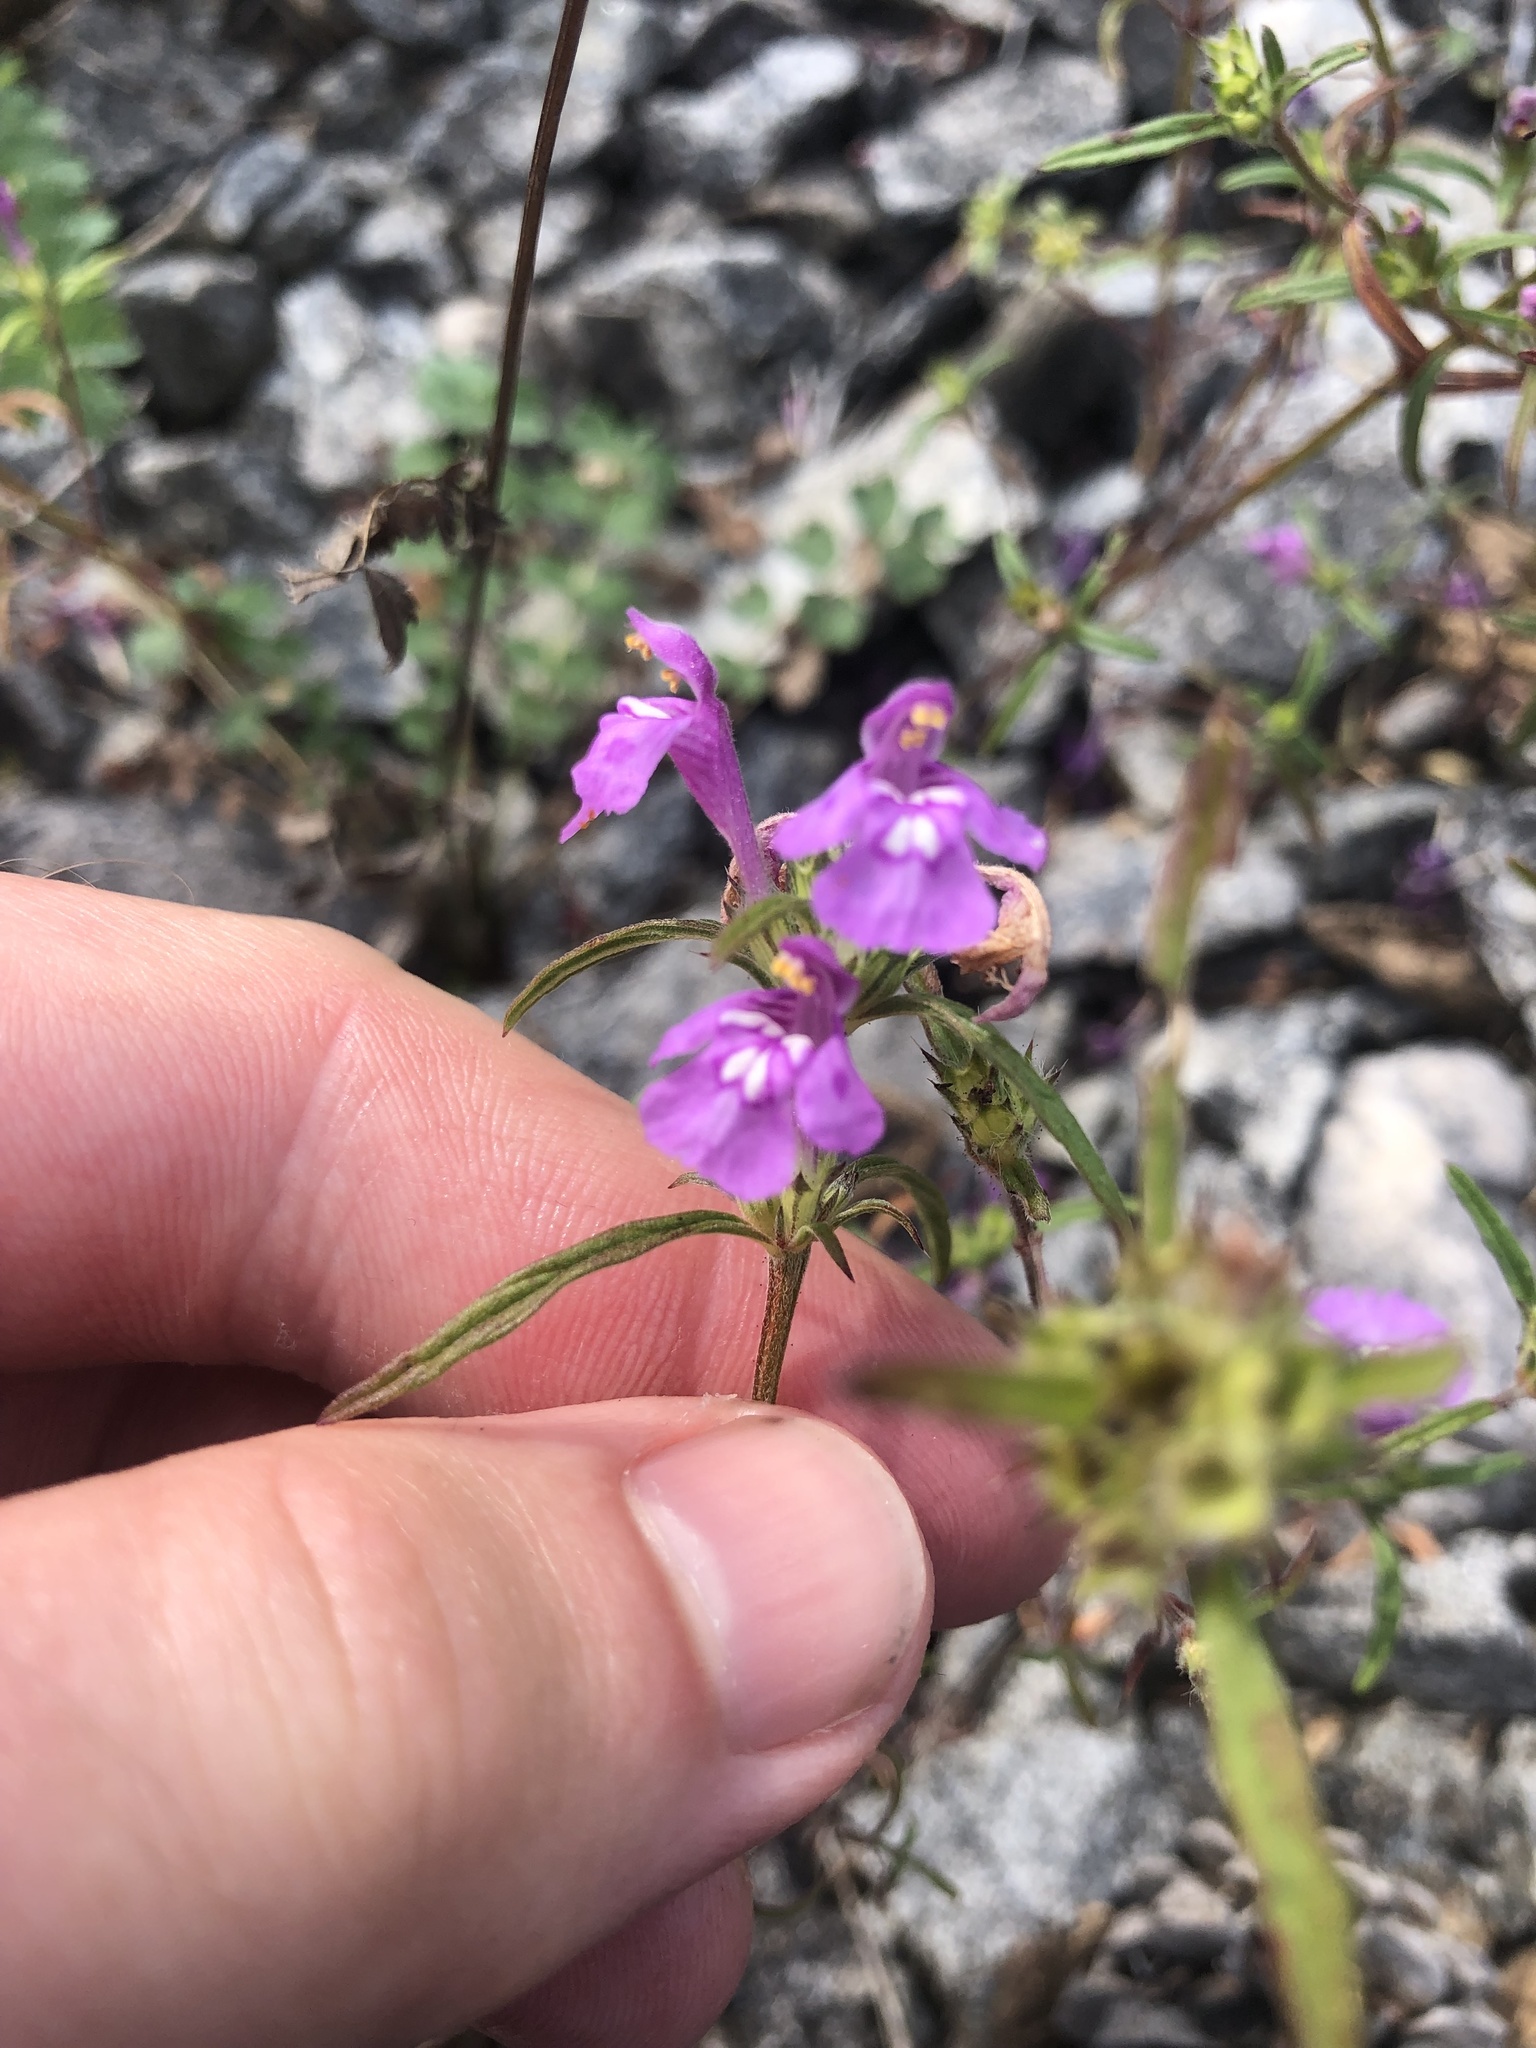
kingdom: Plantae
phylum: Tracheophyta
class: Magnoliopsida
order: Lamiales
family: Lamiaceae
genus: Galeopsis
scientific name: Galeopsis angustifolia
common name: Red hemp-nettle
